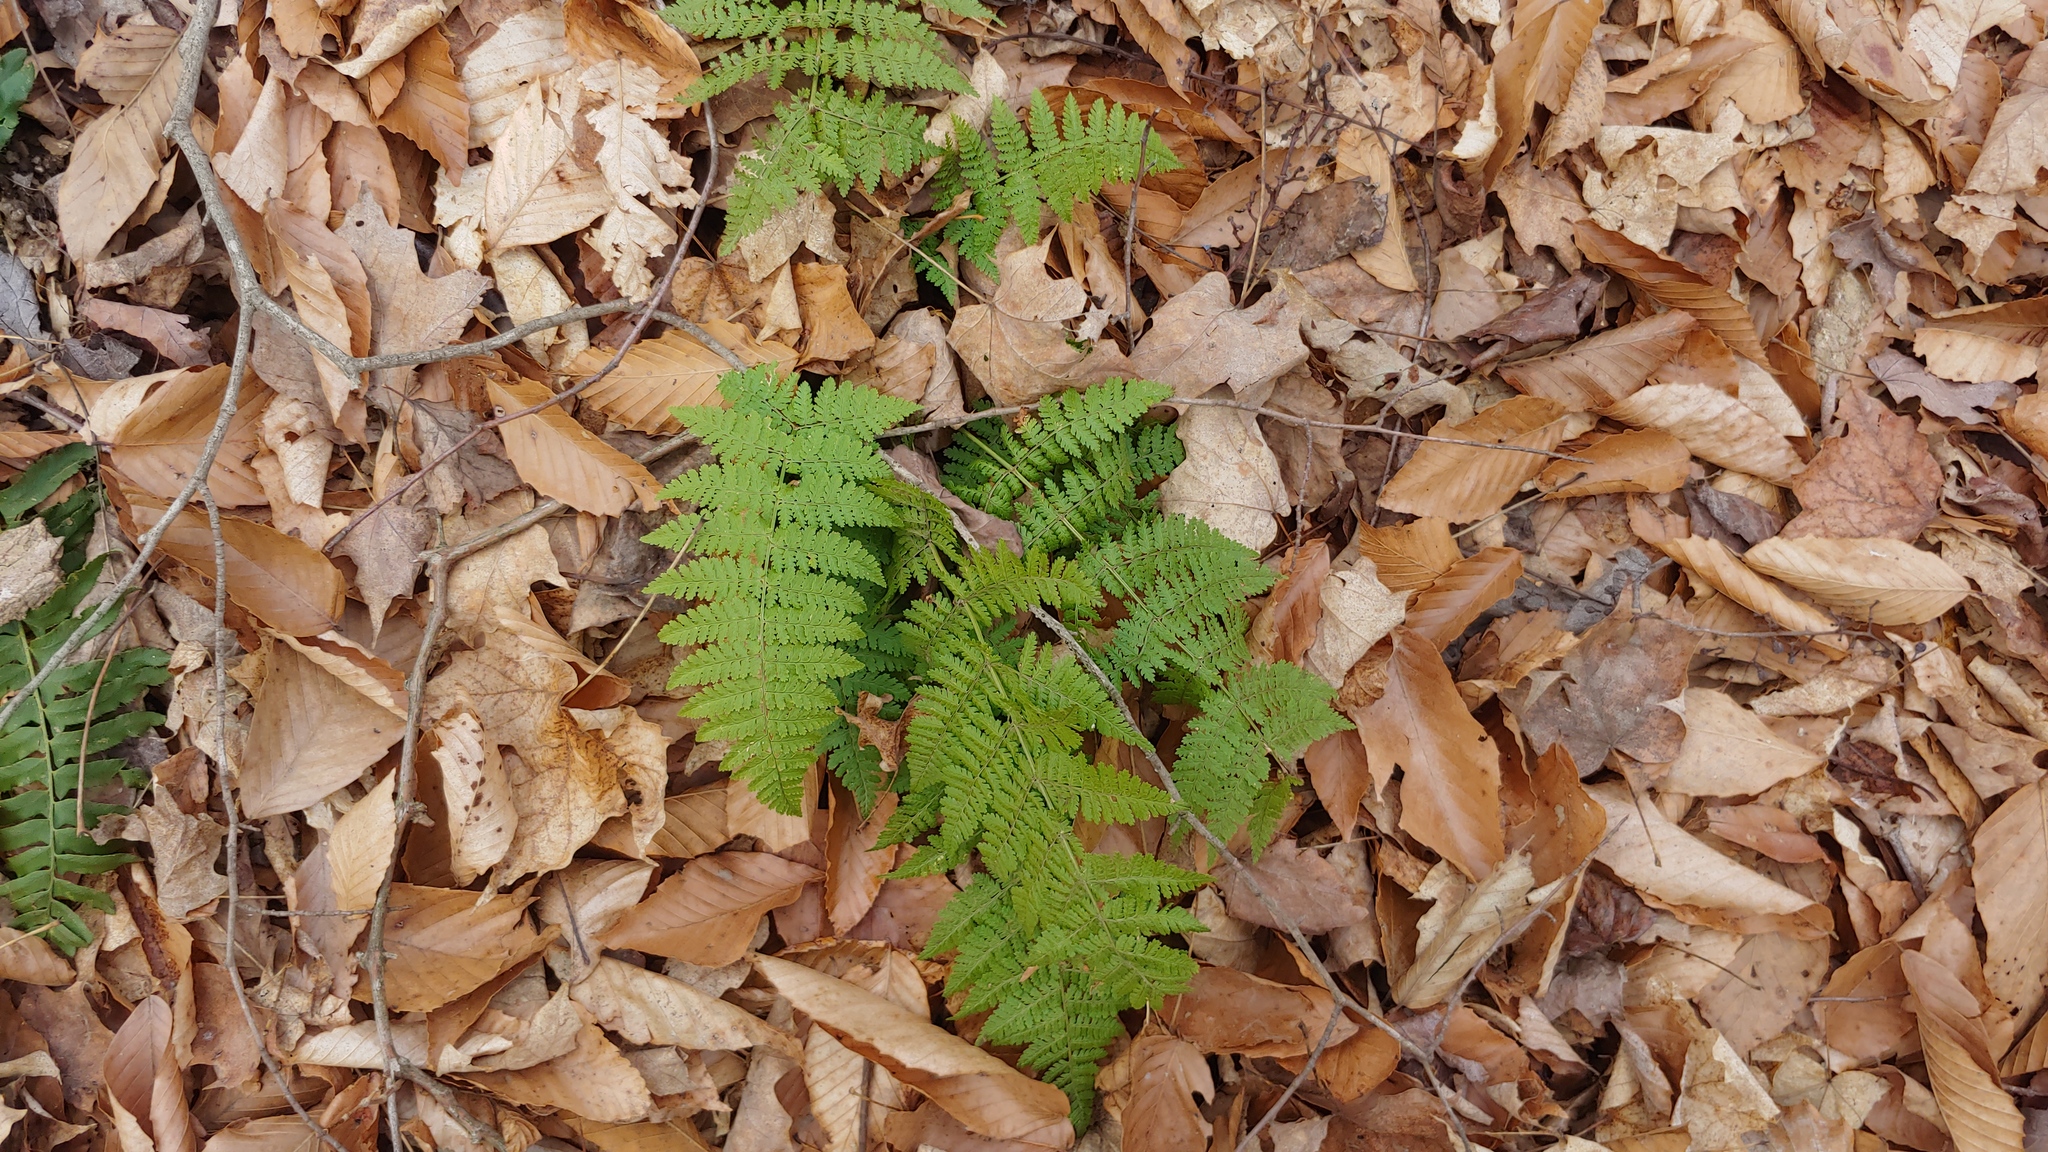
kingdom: Plantae
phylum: Tracheophyta
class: Polypodiopsida
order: Polypodiales
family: Dryopteridaceae
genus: Dryopteris
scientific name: Dryopteris intermedia
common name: Evergreen wood fern
